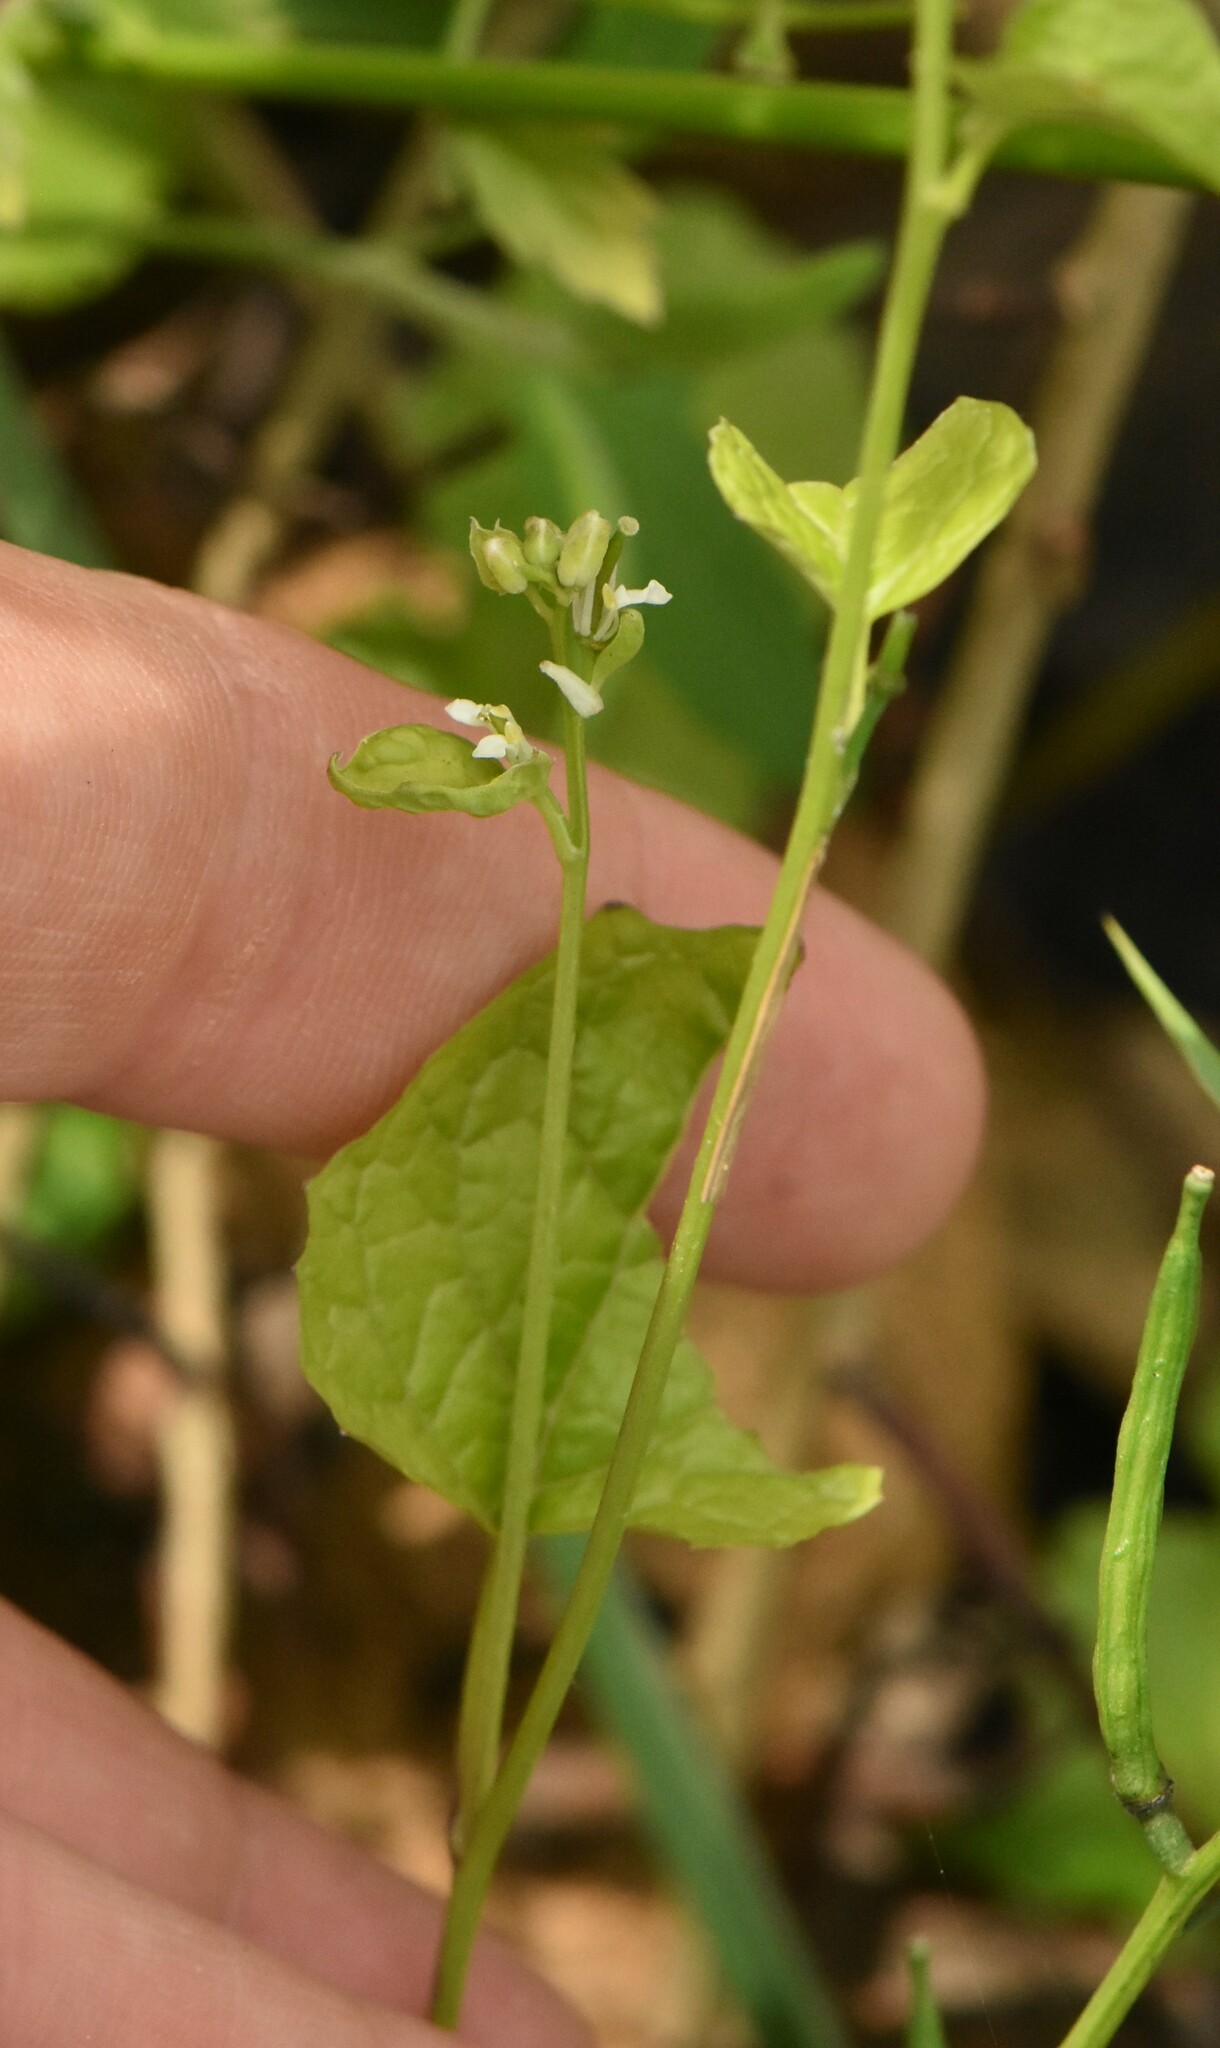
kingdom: Plantae
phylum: Tracheophyta
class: Magnoliopsida
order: Brassicales
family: Brassicaceae
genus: Alliaria
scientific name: Alliaria petiolata
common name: Garlic mustard
